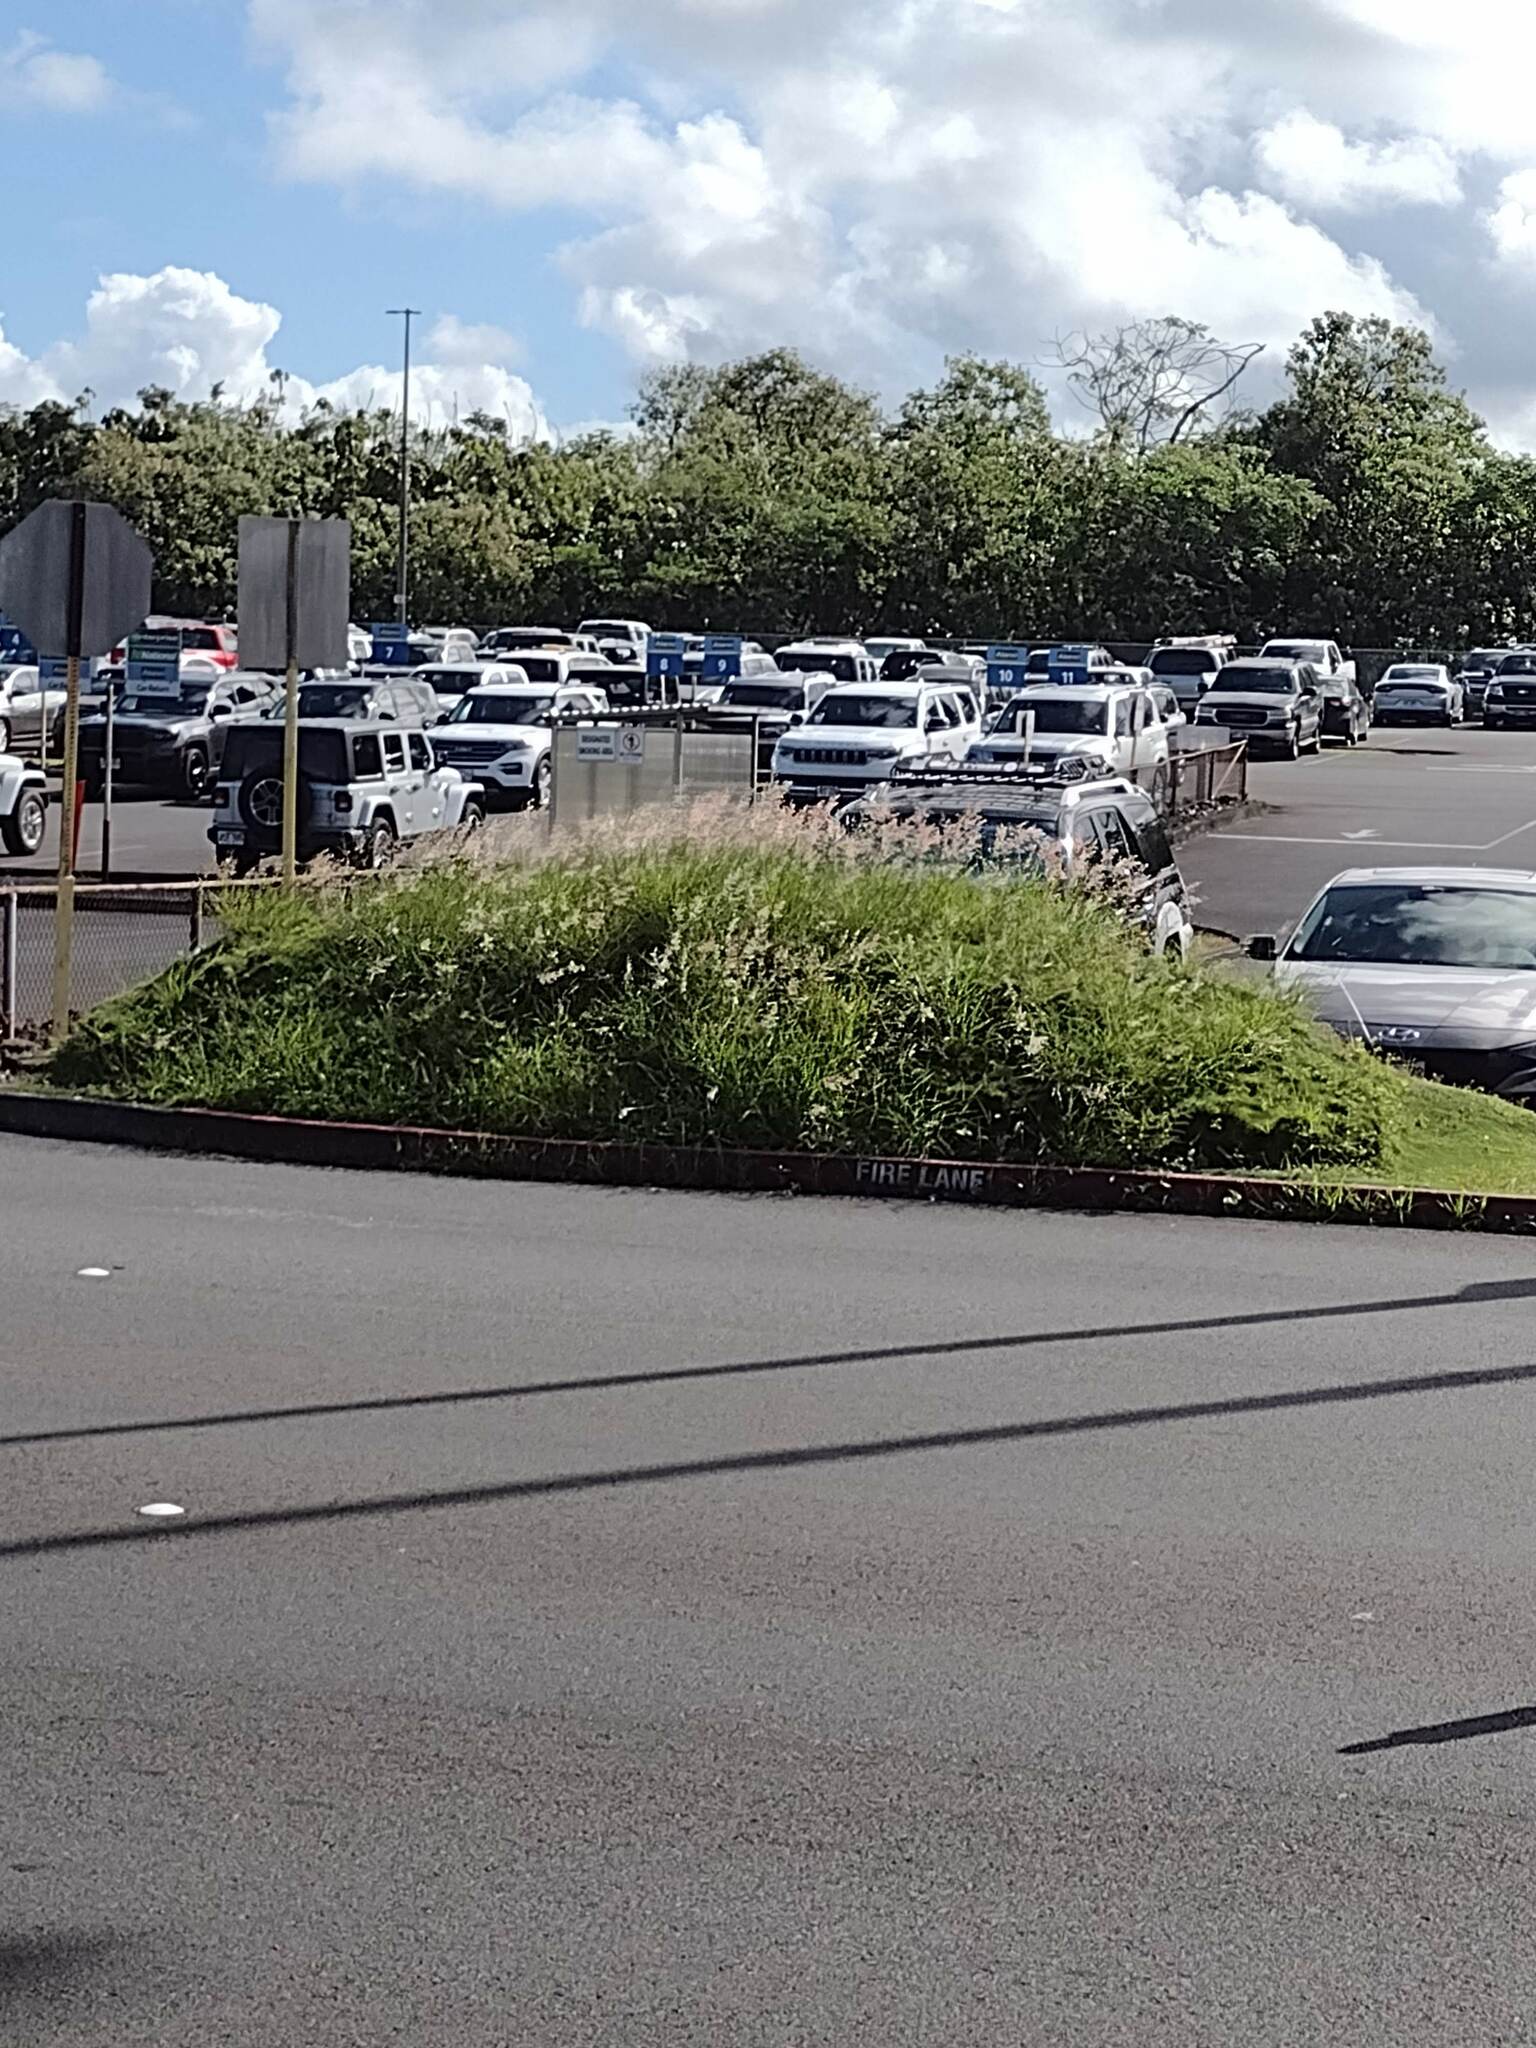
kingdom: Plantae
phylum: Tracheophyta
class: Liliopsida
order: Poales
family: Poaceae
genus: Melinis
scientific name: Melinis repens
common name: Rose natal grass
